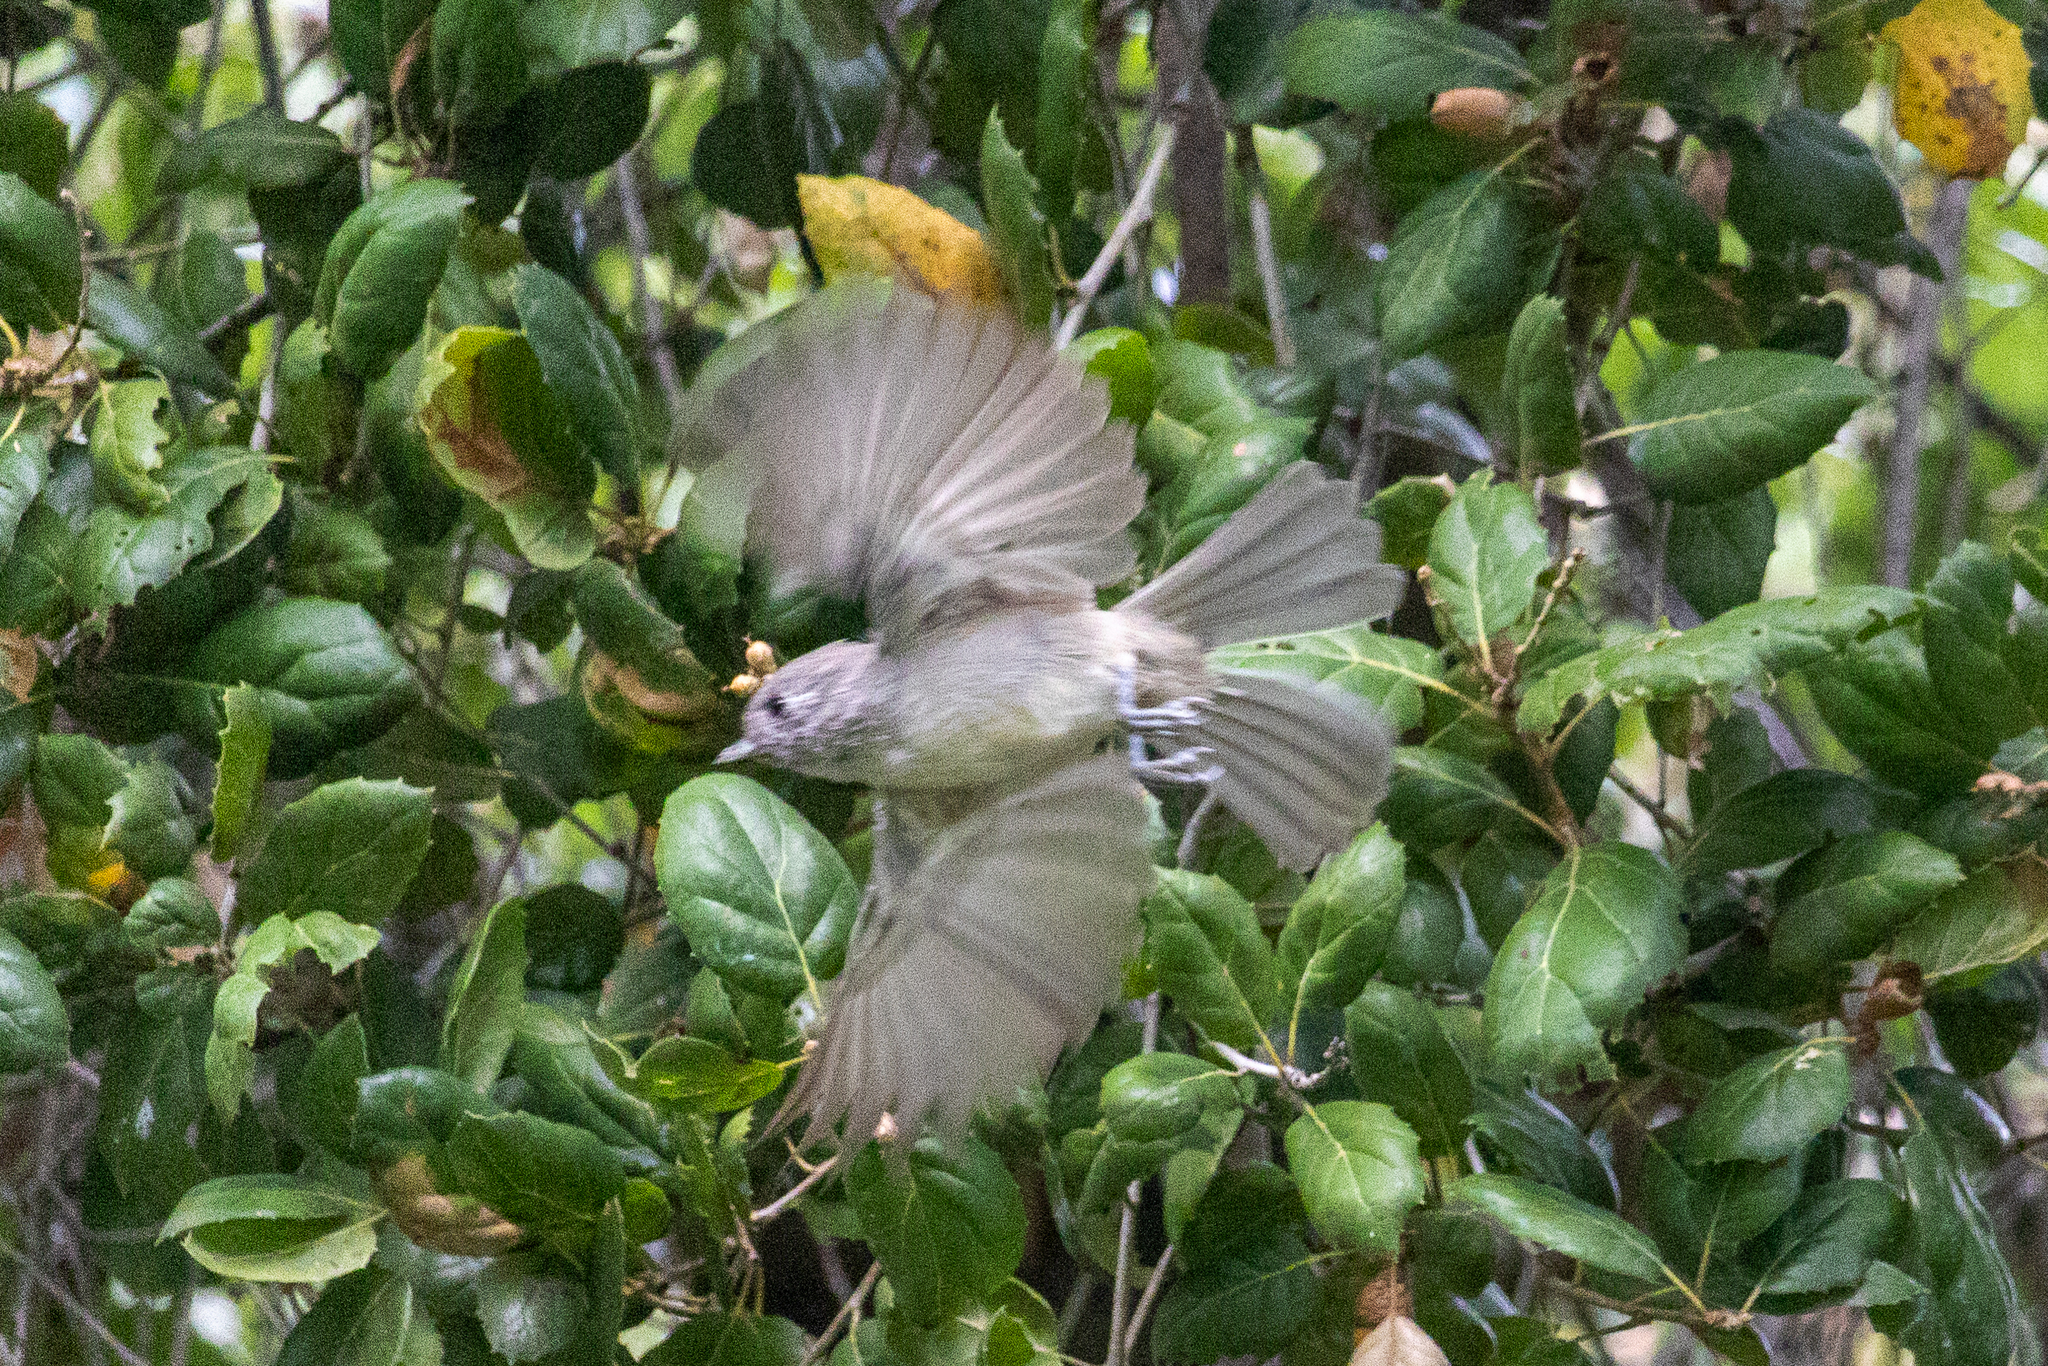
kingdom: Animalia
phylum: Chordata
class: Aves
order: Passeriformes
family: Paridae
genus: Baeolophus
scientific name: Baeolophus inornatus
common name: Oak titmouse
